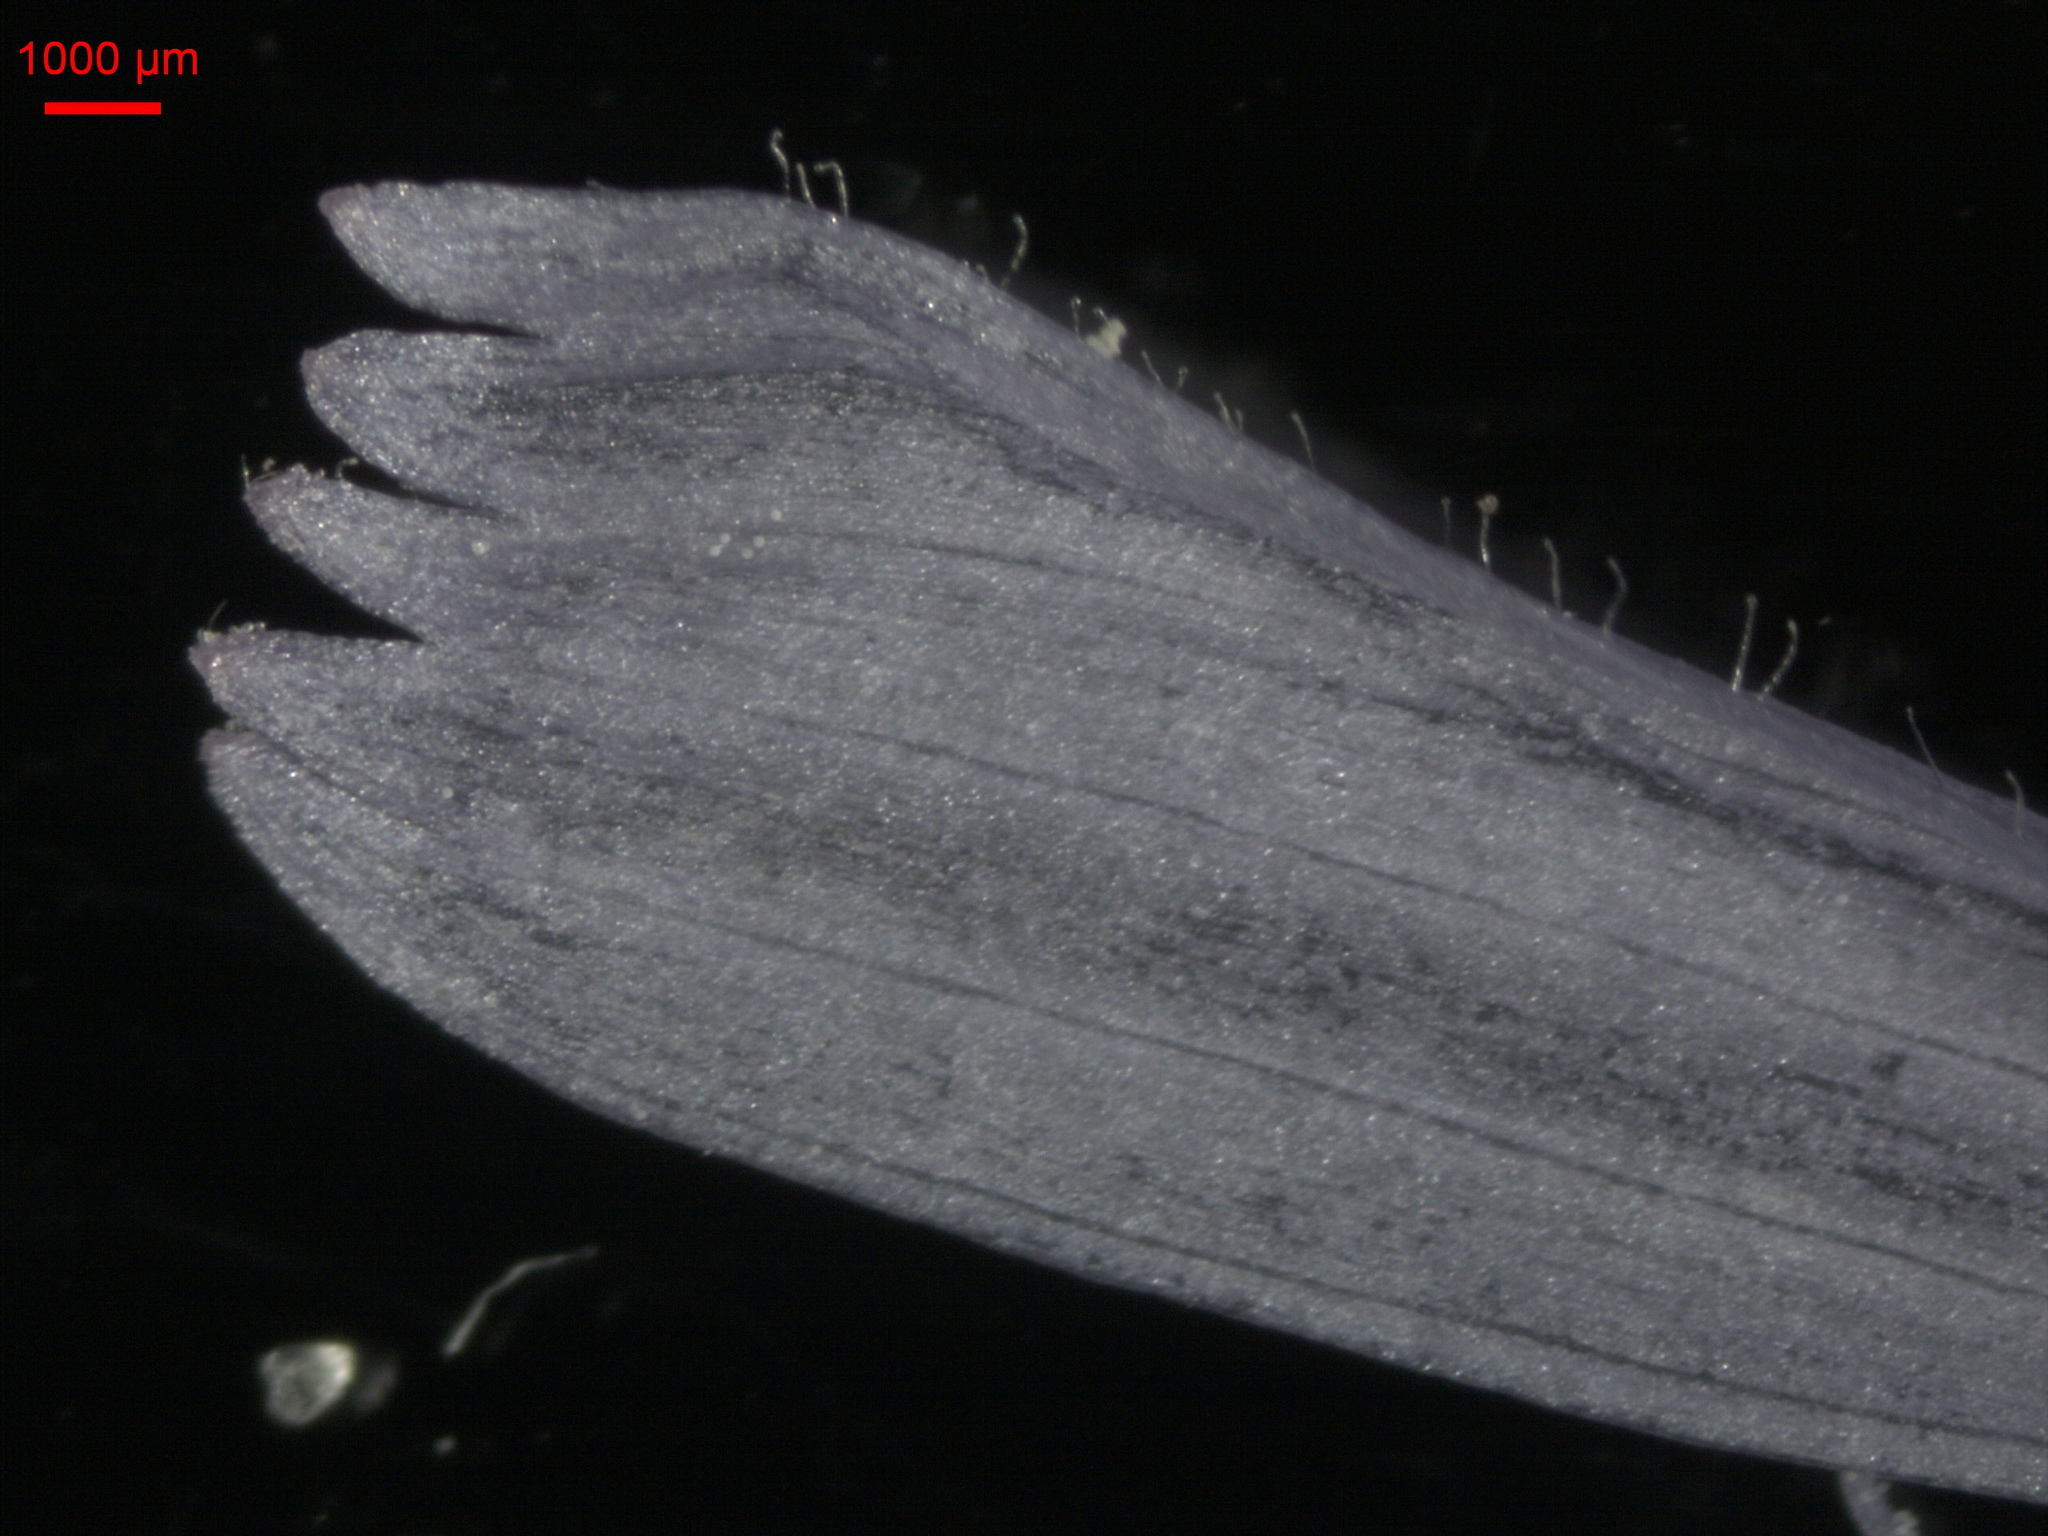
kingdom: Plantae
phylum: Tracheophyta
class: Magnoliopsida
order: Asterales
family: Asteraceae
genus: Cichorium
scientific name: Cichorium intybus
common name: Chicory
